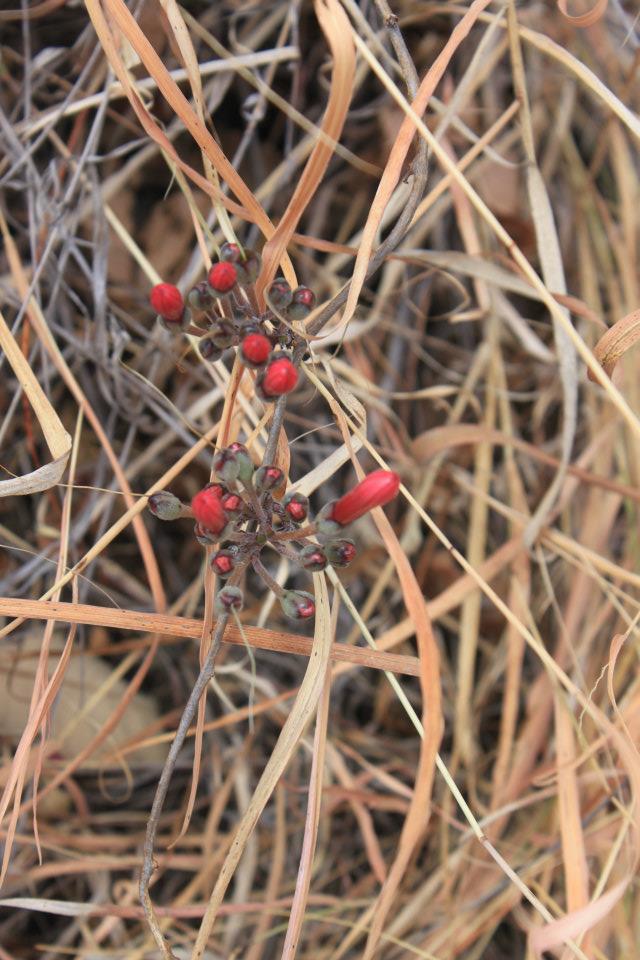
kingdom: Plantae
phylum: Tracheophyta
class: Magnoliopsida
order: Solanales
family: Convolvulaceae
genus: Ipomoea
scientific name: Ipomoea conzattii
